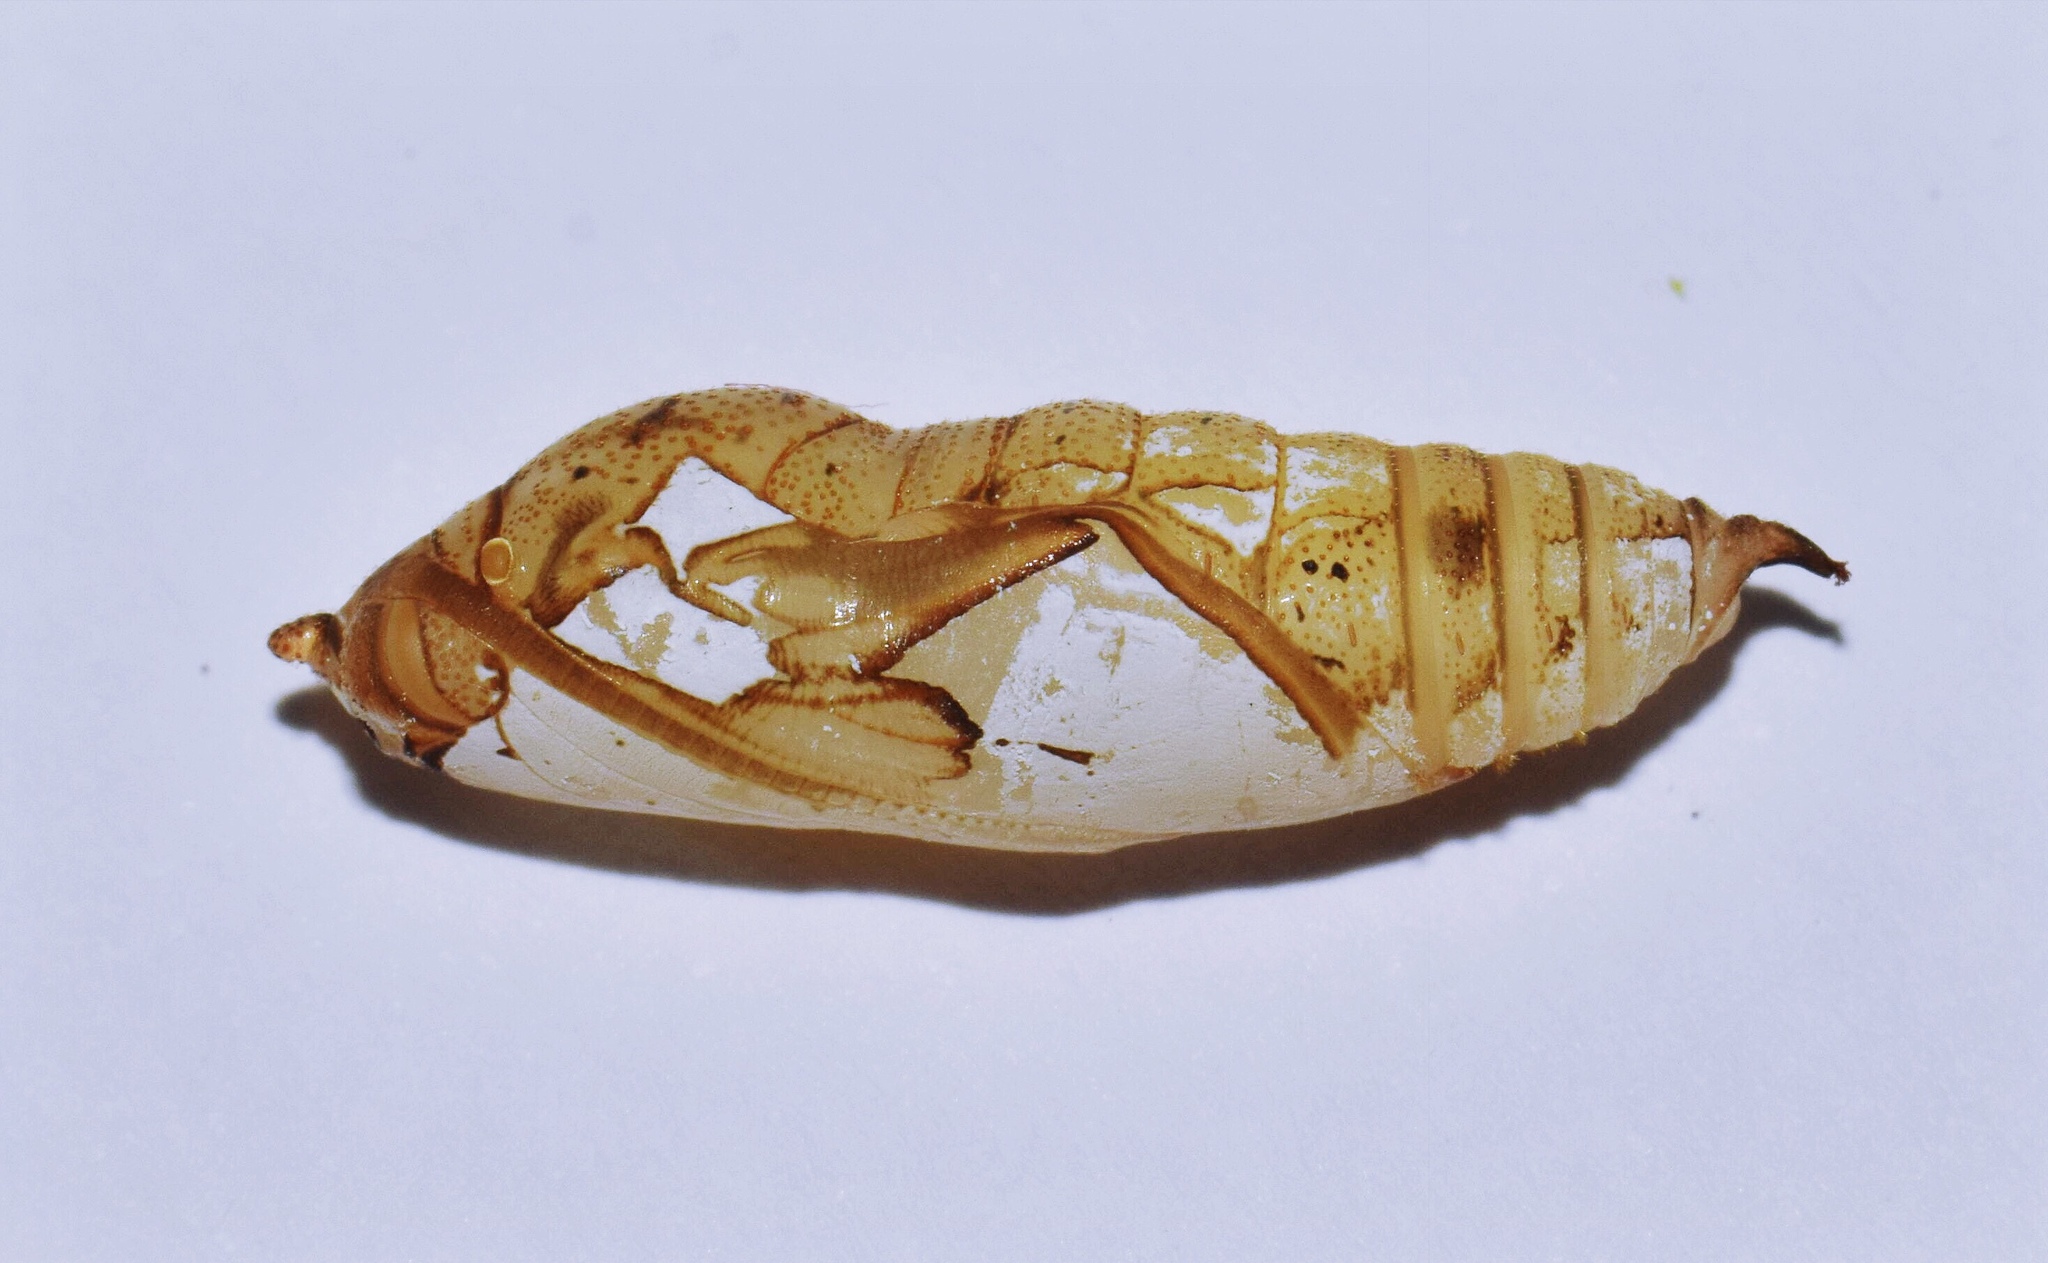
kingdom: Animalia
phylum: Arthropoda
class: Insecta
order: Lepidoptera
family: Hesperiidae
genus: Tagiades
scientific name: Tagiades flesus
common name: Clouded flat
